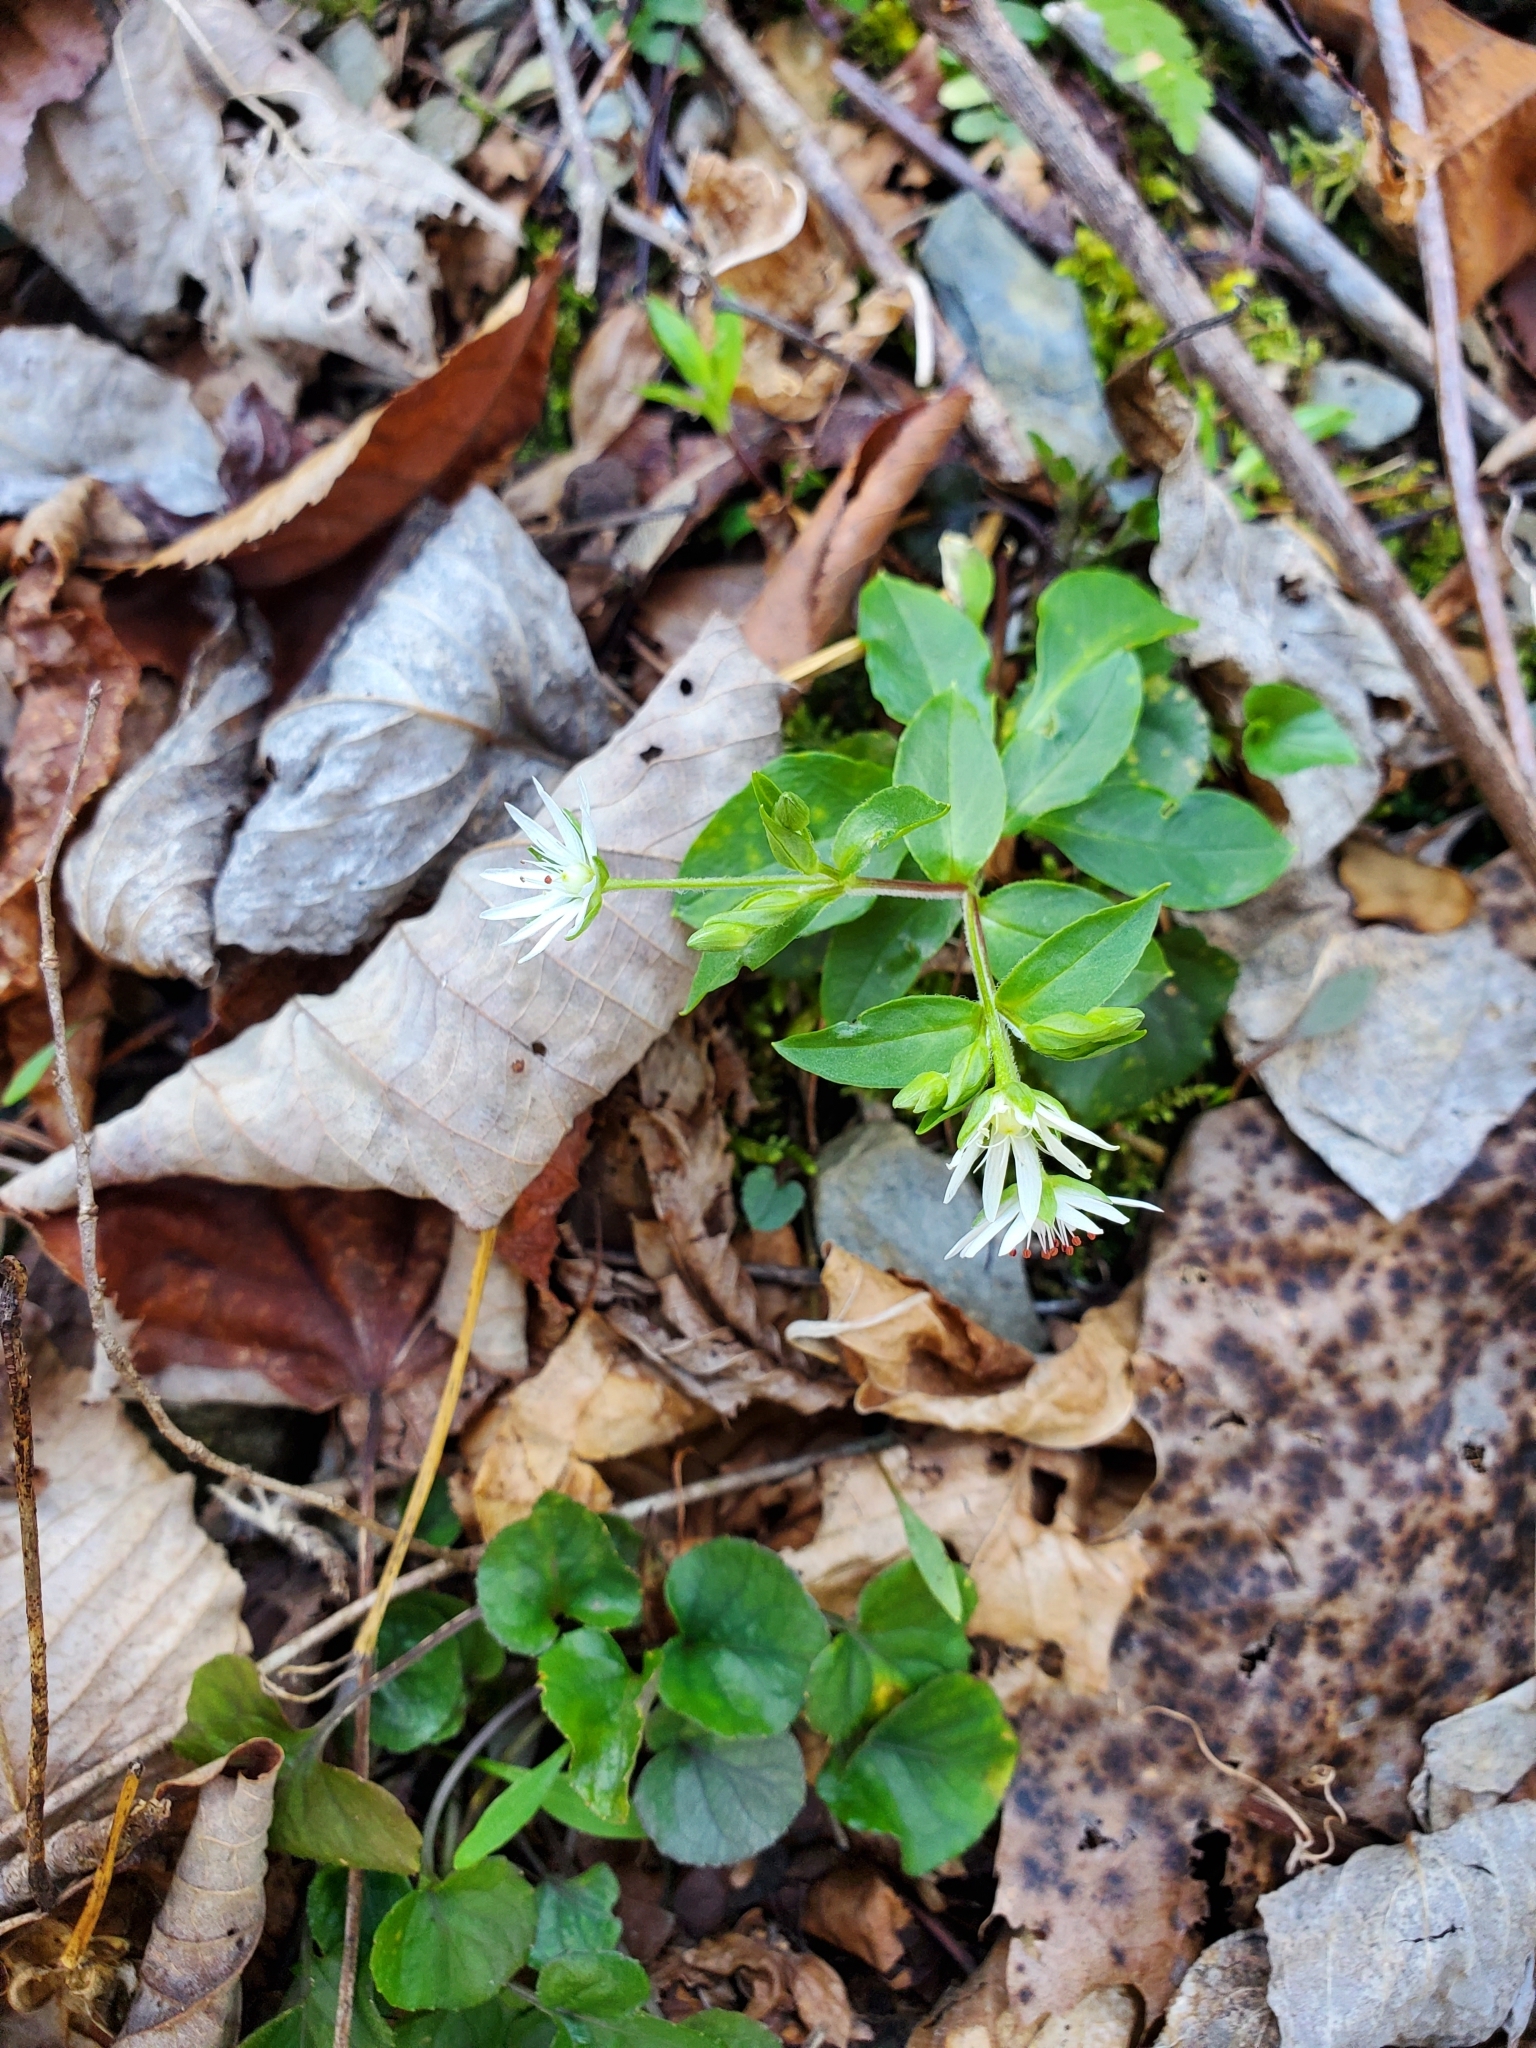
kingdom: Plantae
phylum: Tracheophyta
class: Magnoliopsida
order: Caryophyllales
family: Caryophyllaceae
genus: Stellaria
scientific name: Stellaria pubera
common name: Star chickweed
